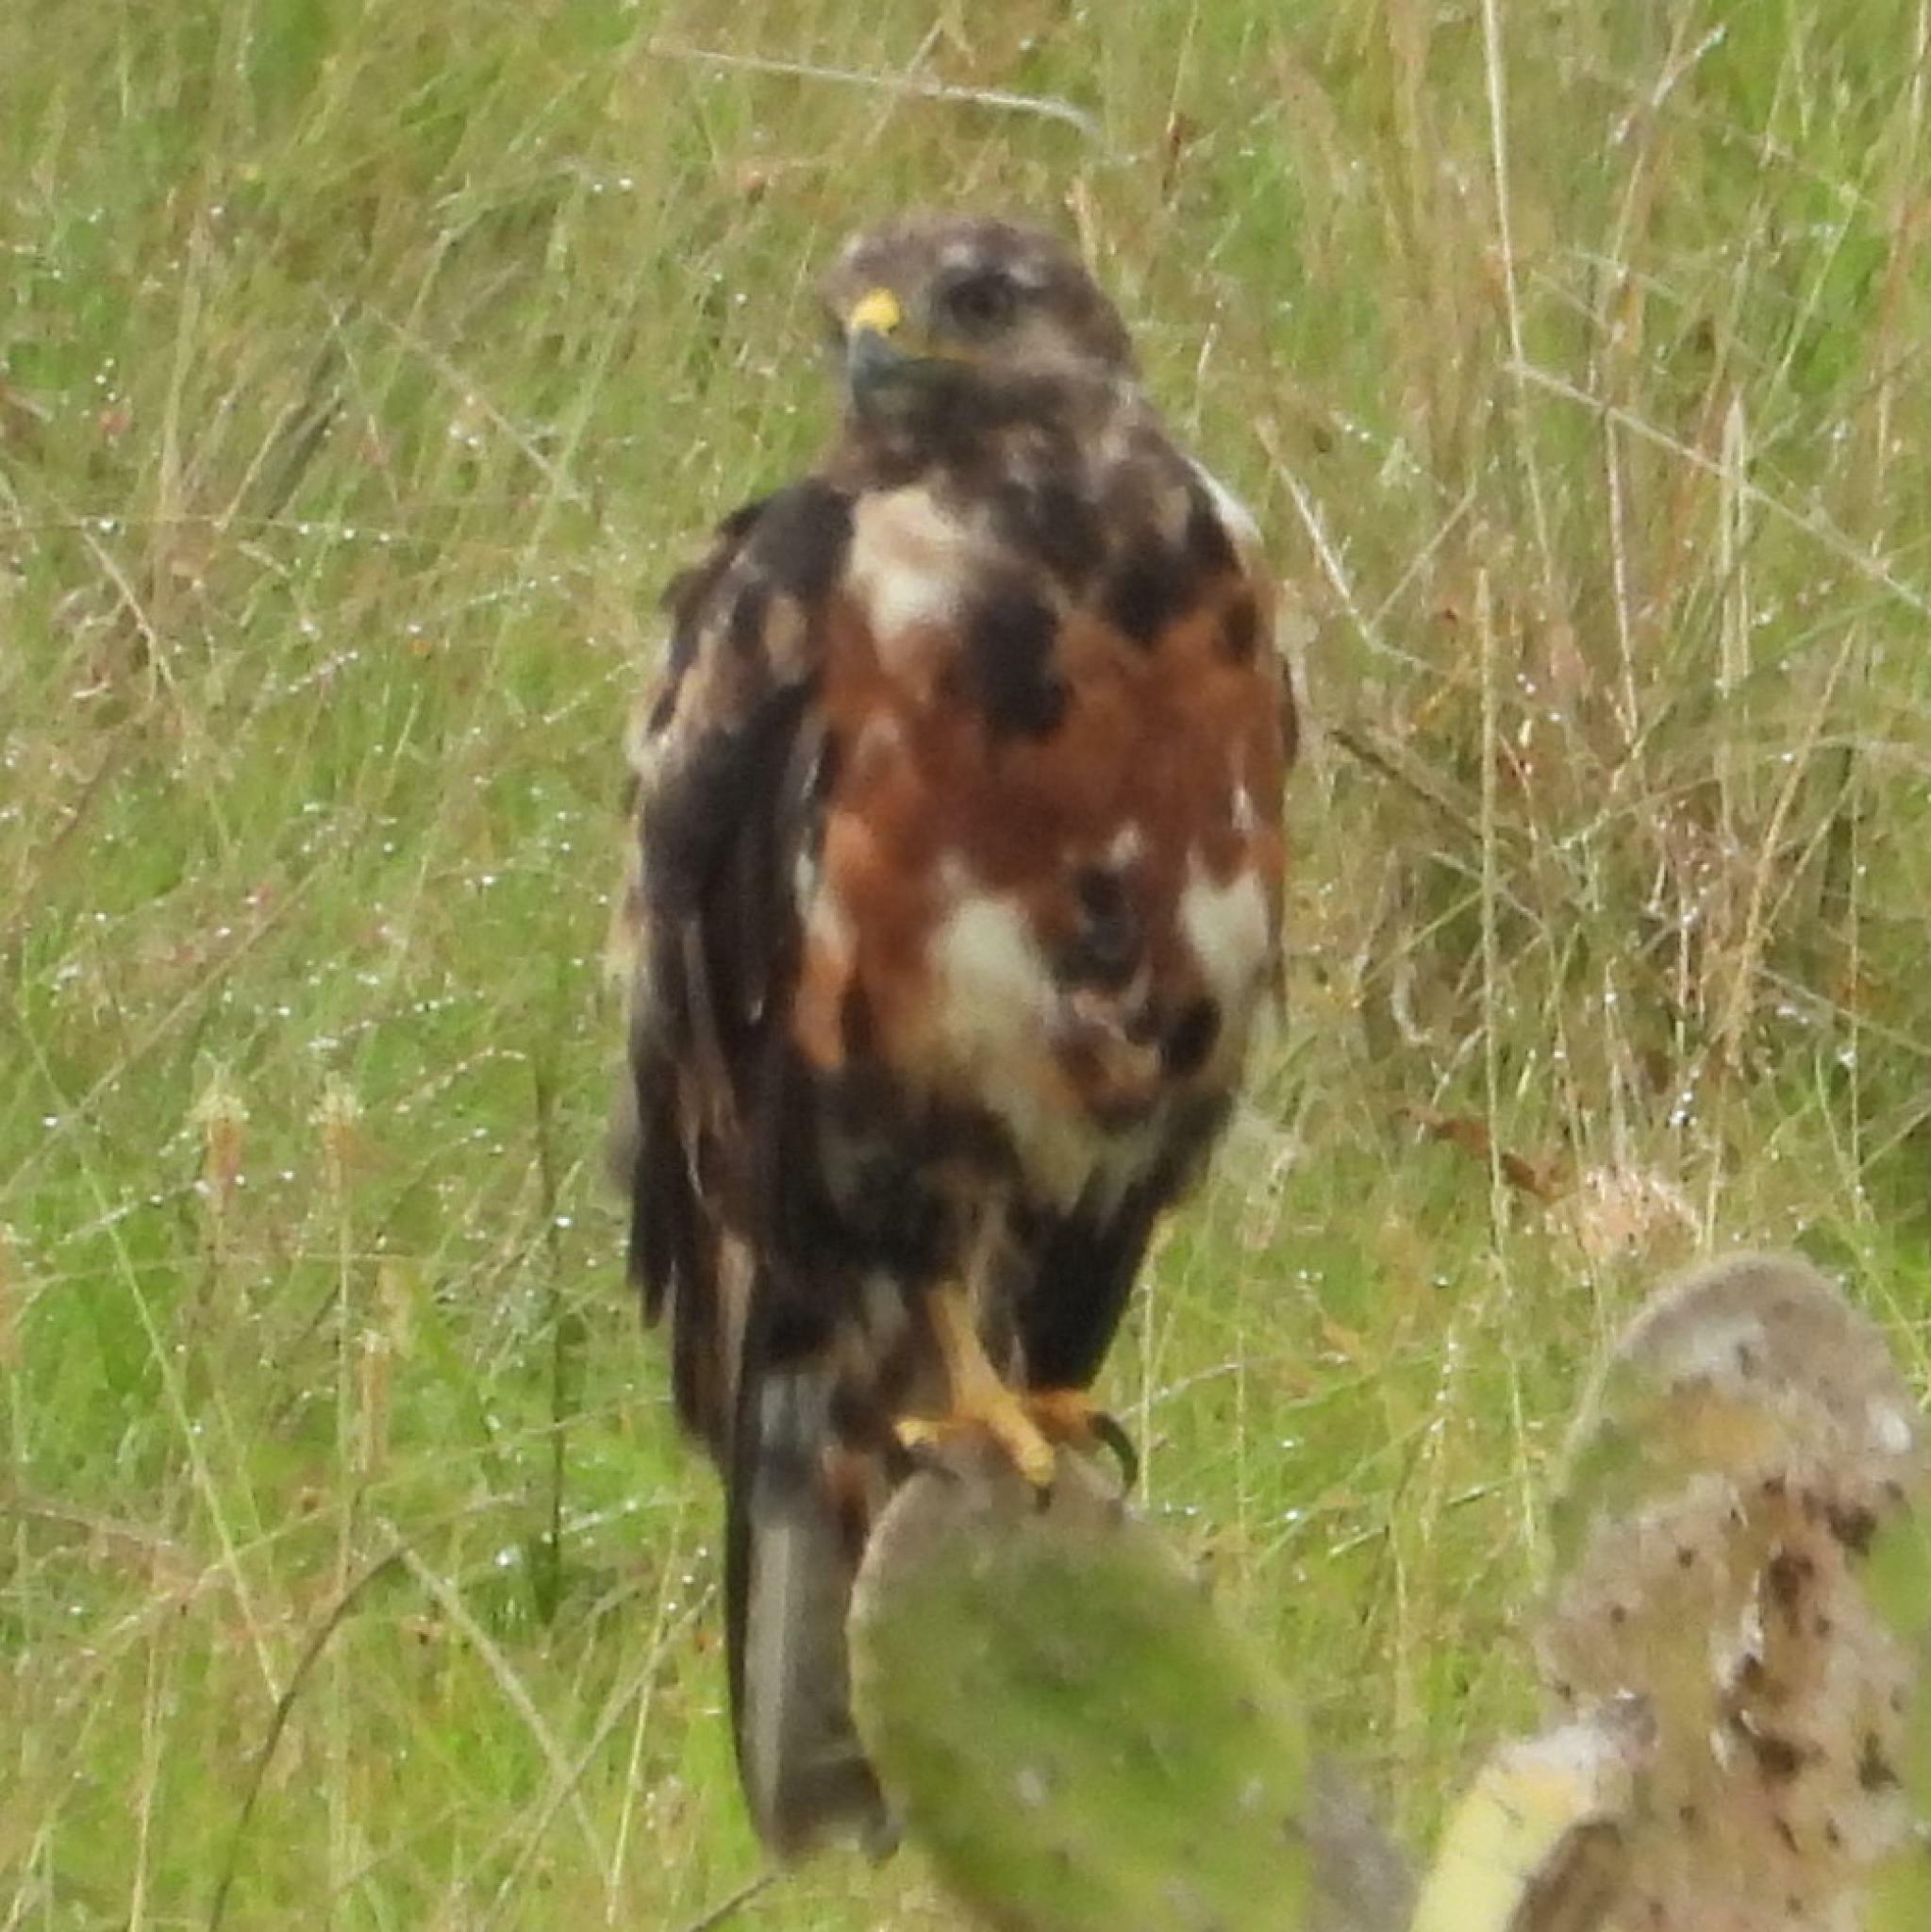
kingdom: Animalia
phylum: Chordata
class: Aves
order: Accipitriformes
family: Accipitridae
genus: Buteo
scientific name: Buteo rufofuscus
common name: Jackal buzzard
